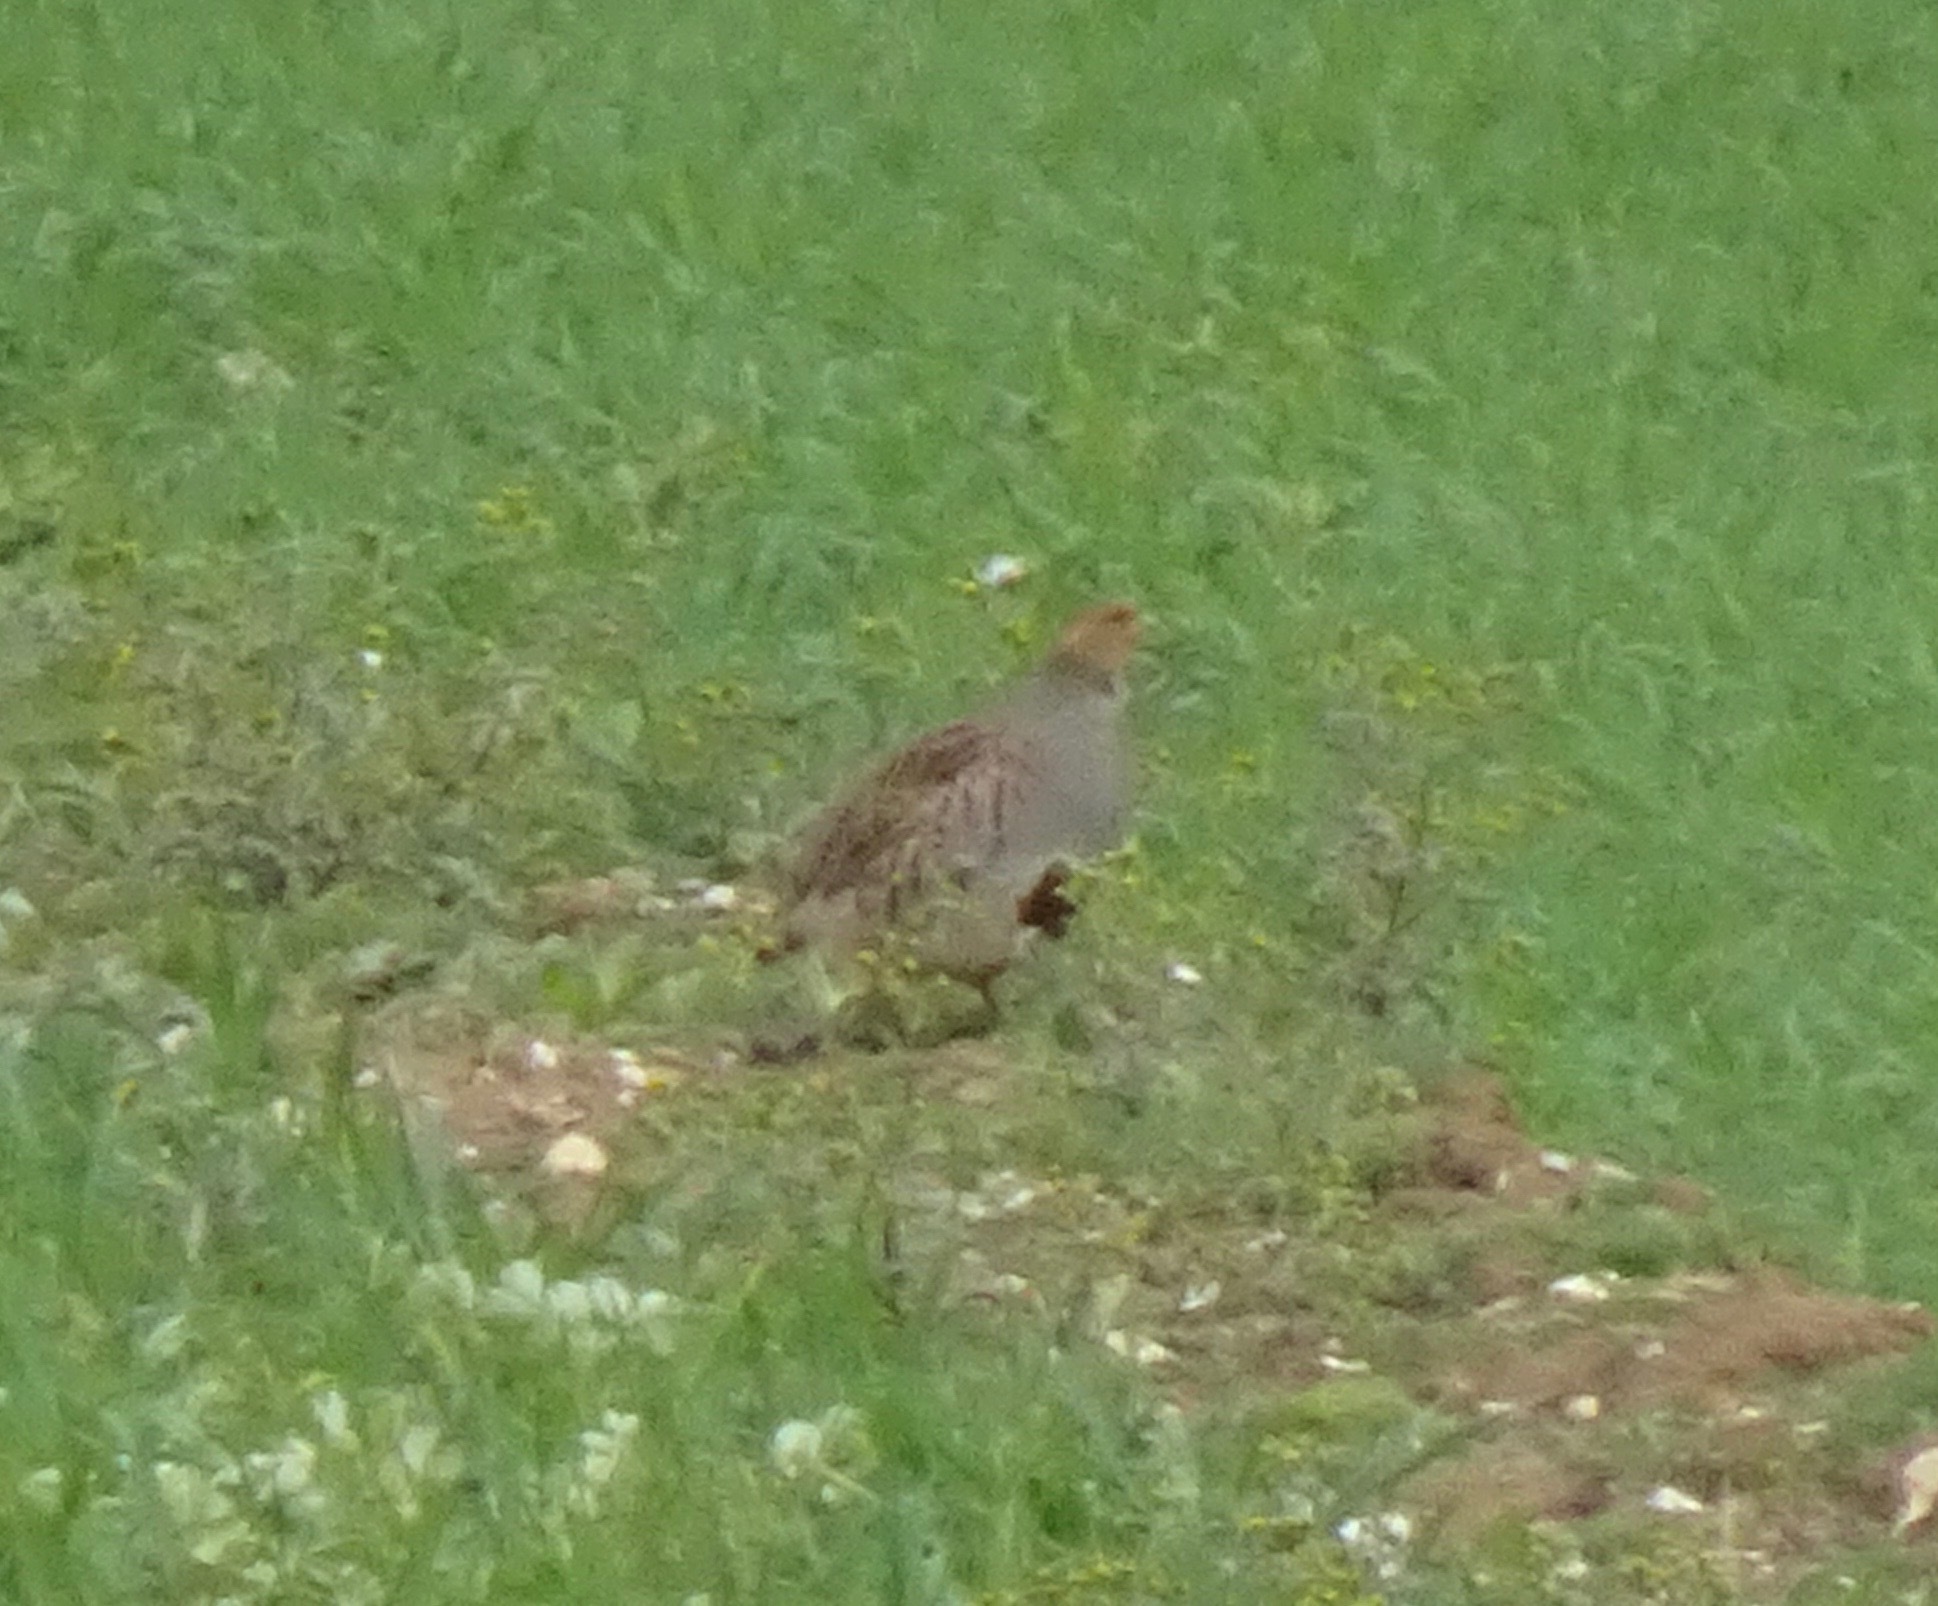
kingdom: Animalia
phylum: Chordata
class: Aves
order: Galliformes
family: Phasianidae
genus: Perdix
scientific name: Perdix perdix
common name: Grey partridge
